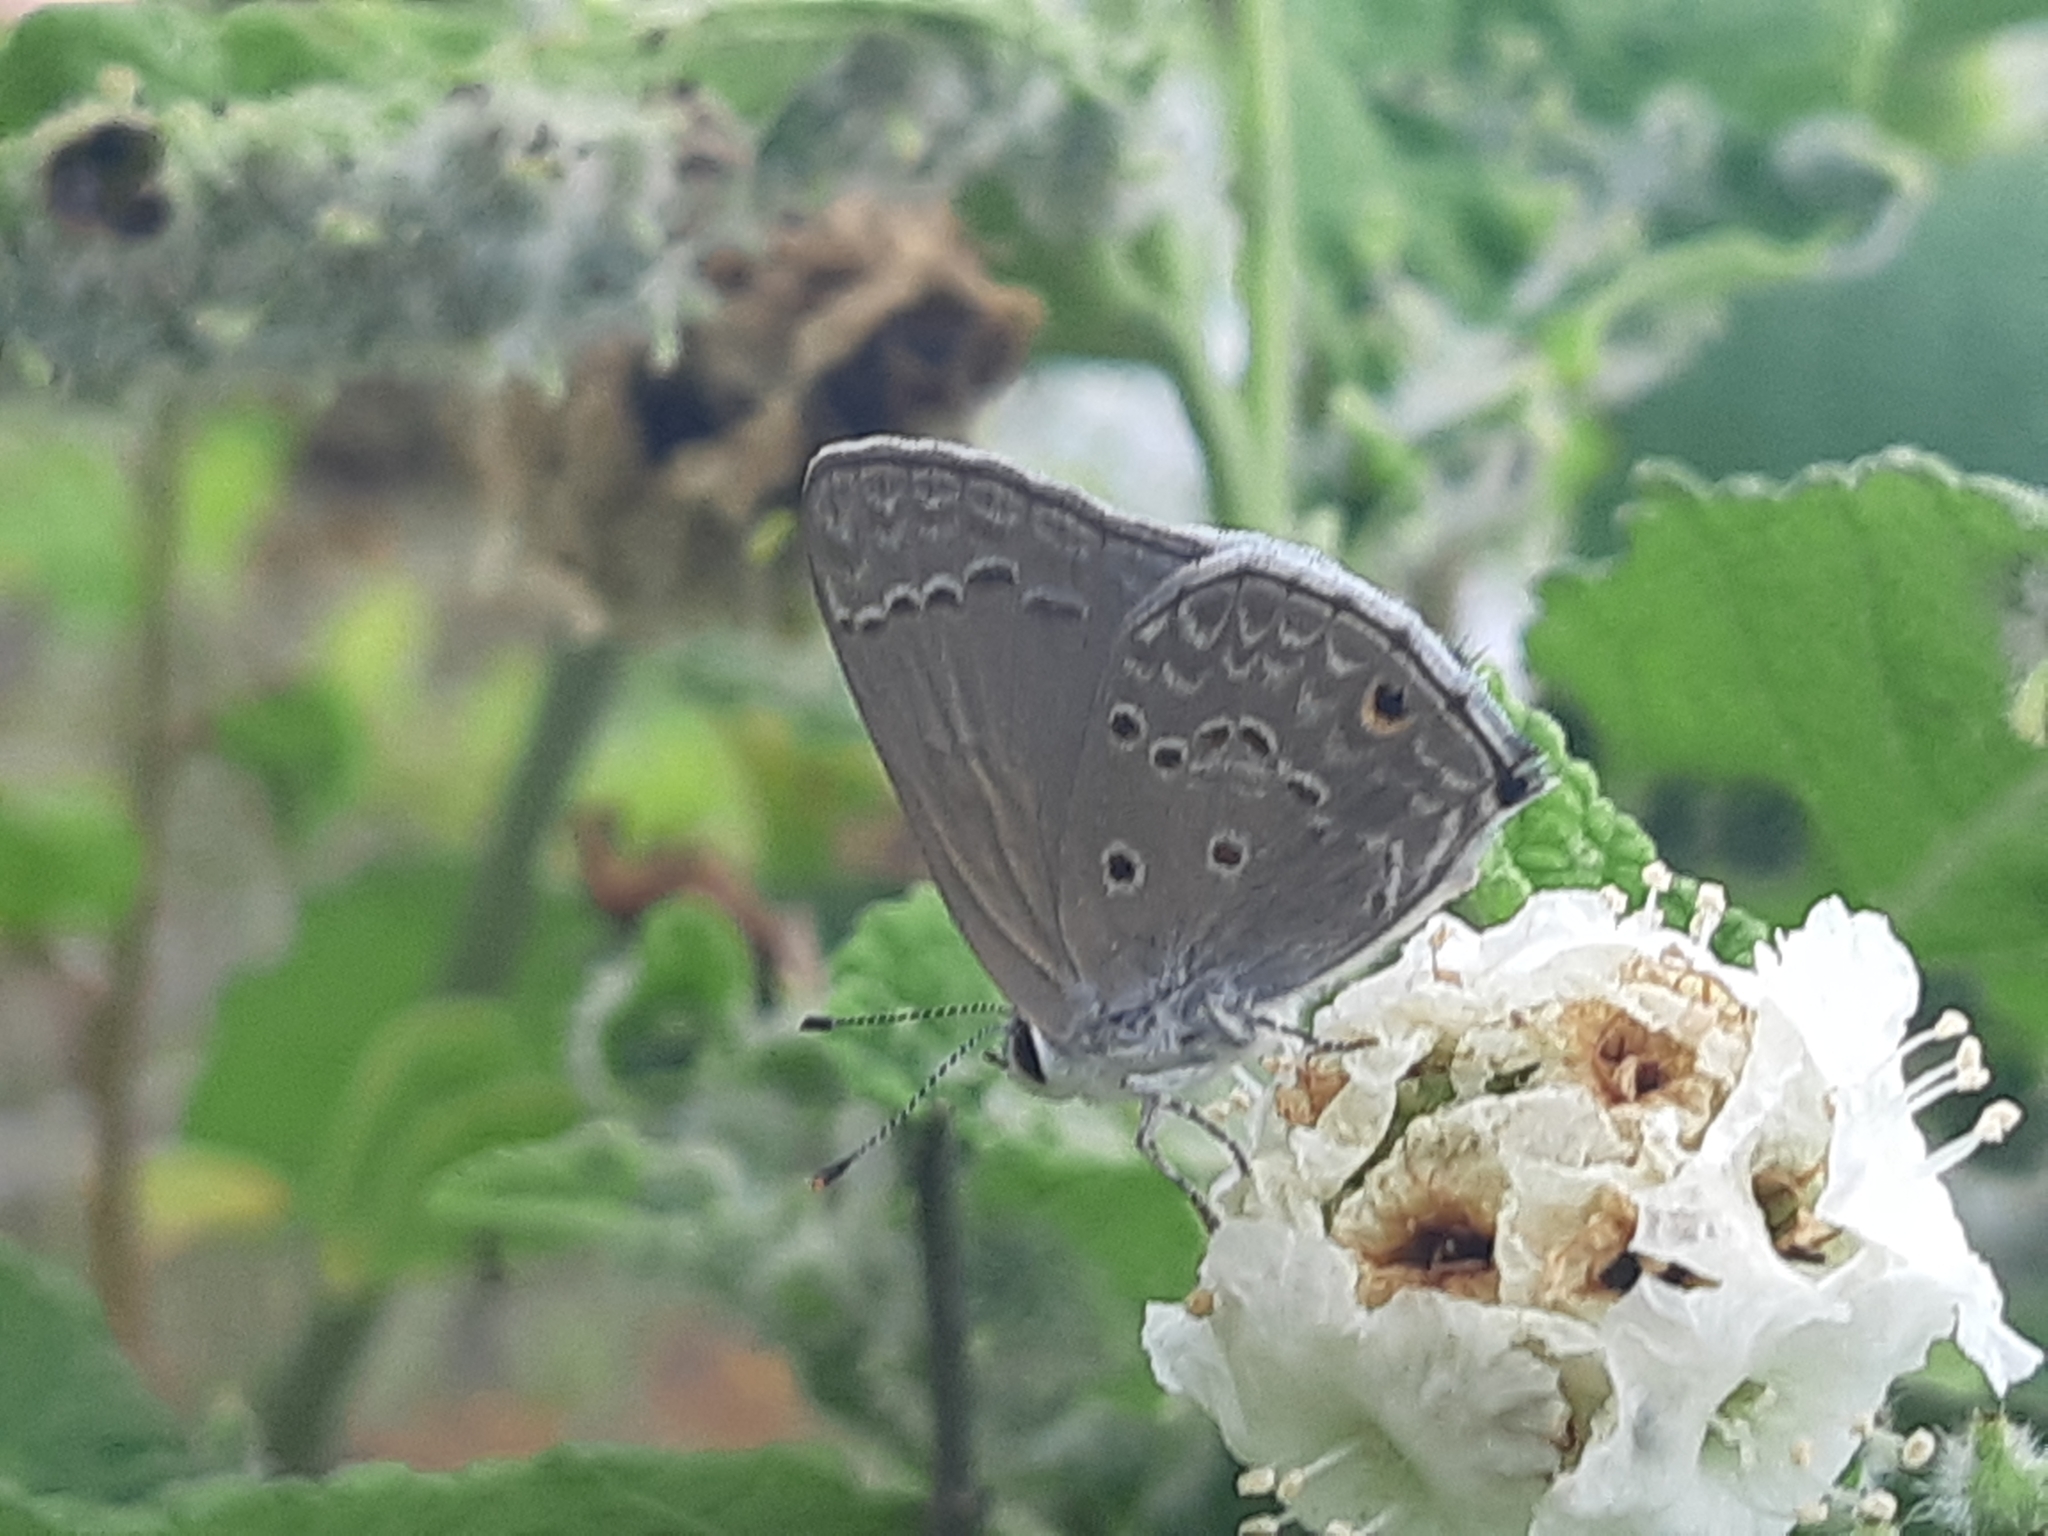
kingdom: Animalia
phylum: Arthropoda
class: Insecta
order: Lepidoptera
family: Lycaenidae
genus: Strymon
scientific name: Strymon bubastus
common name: Bubastes hairstreak
